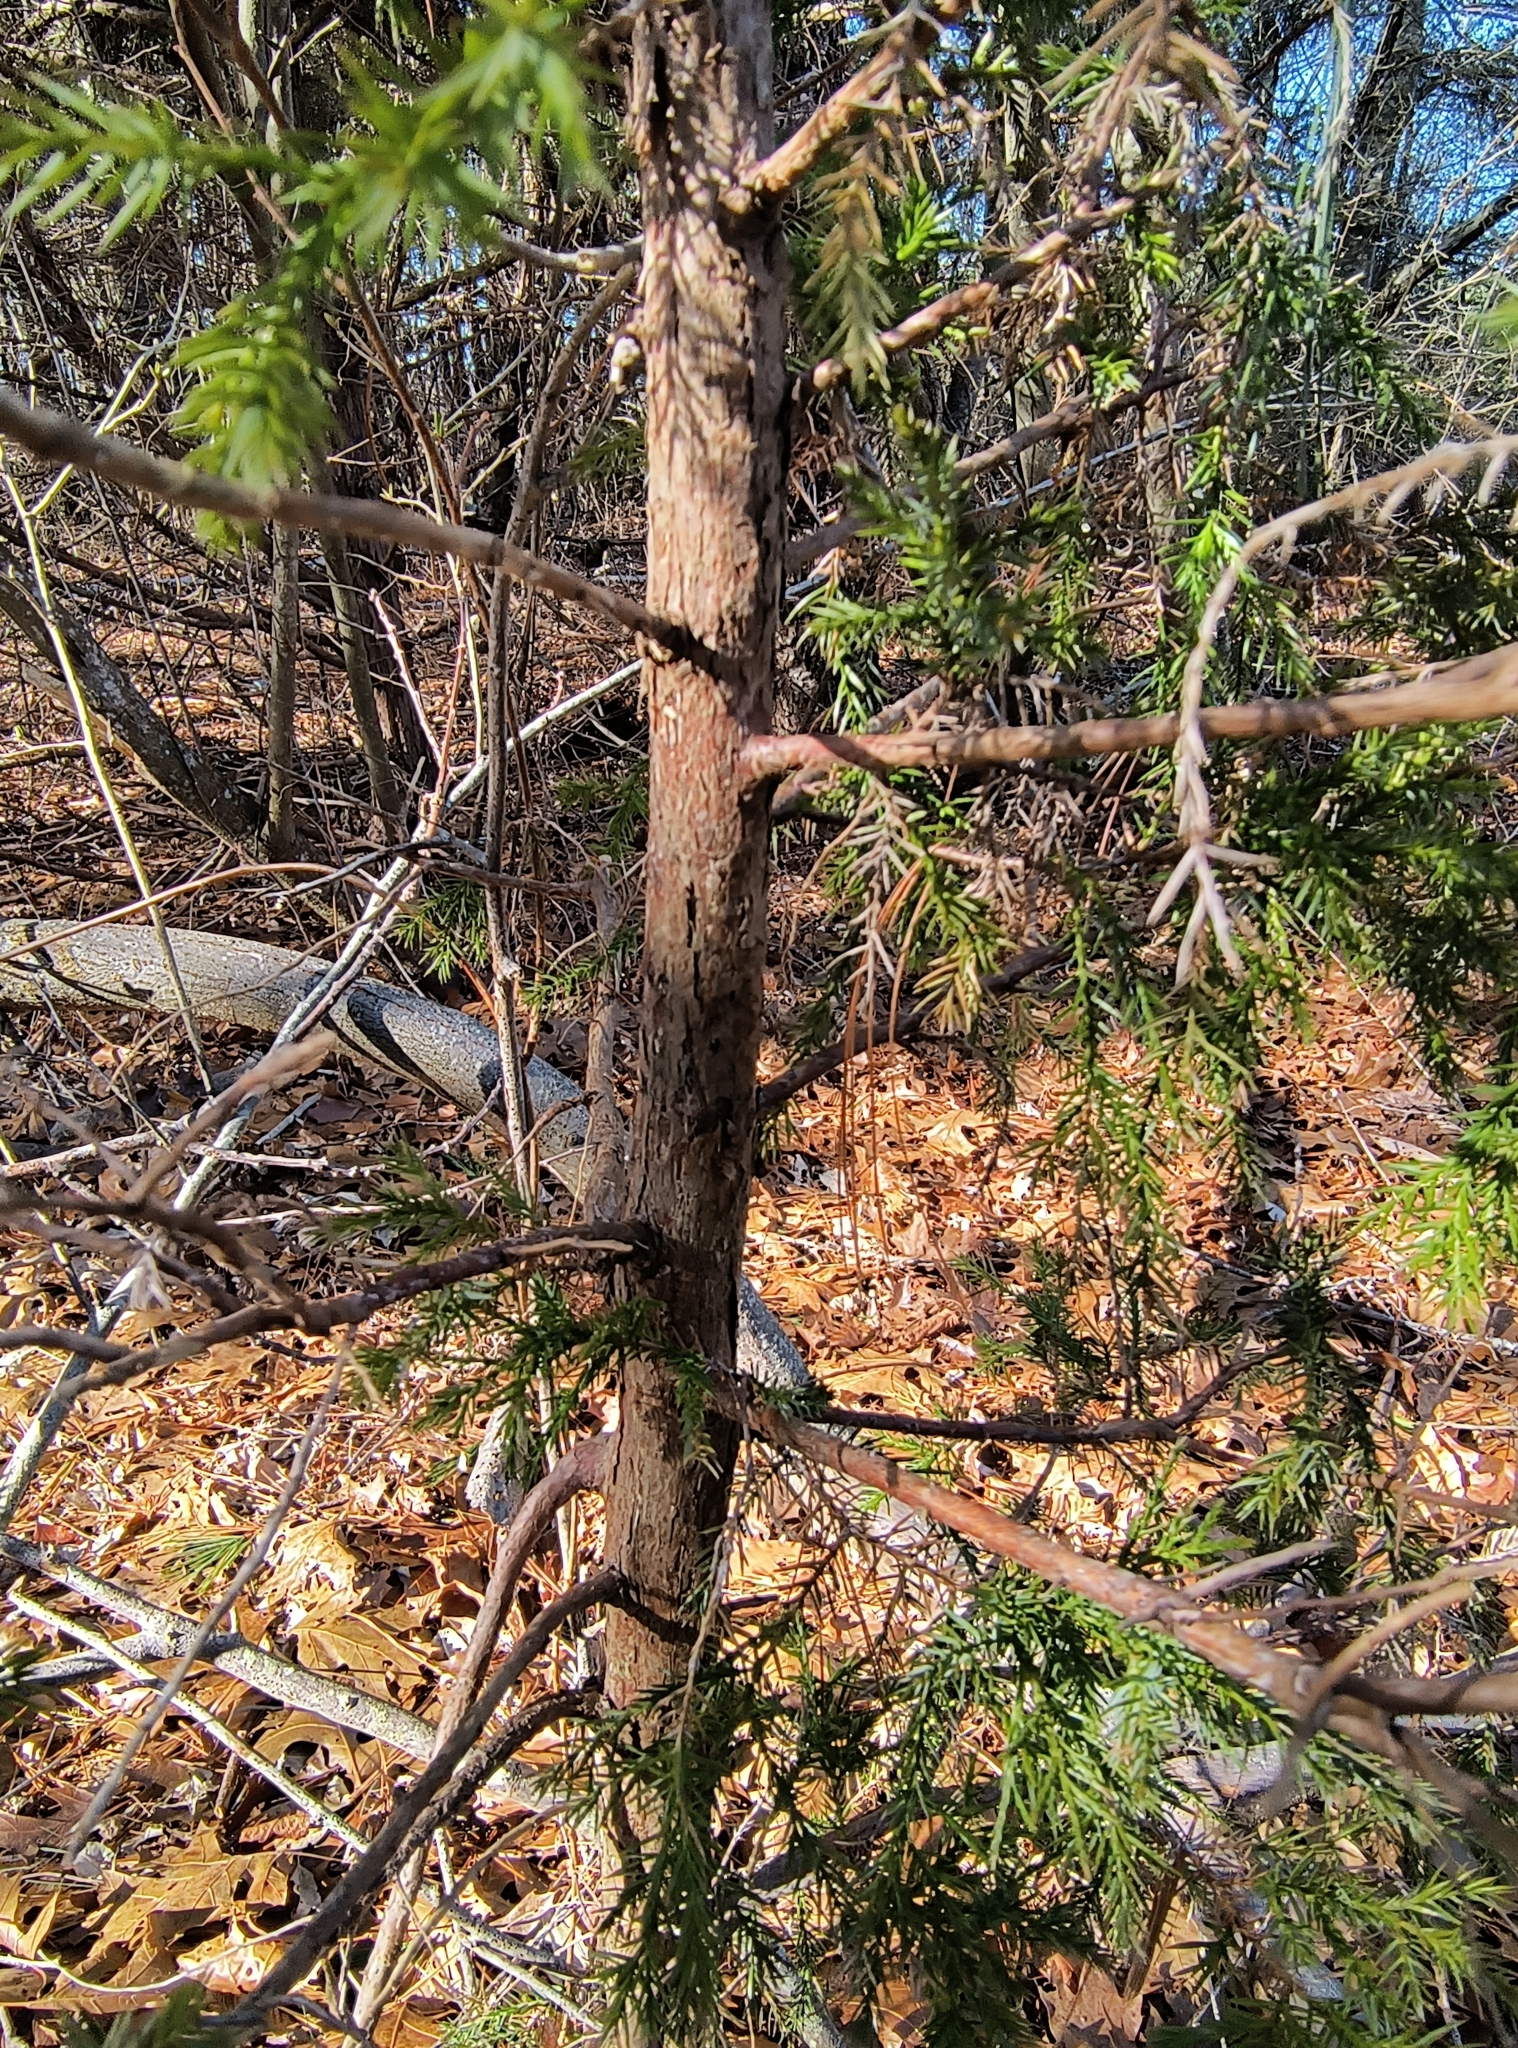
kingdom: Plantae
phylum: Tracheophyta
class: Pinopsida
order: Pinales
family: Cupressaceae
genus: Juniperus
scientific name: Juniperus virginiana
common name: Red juniper
